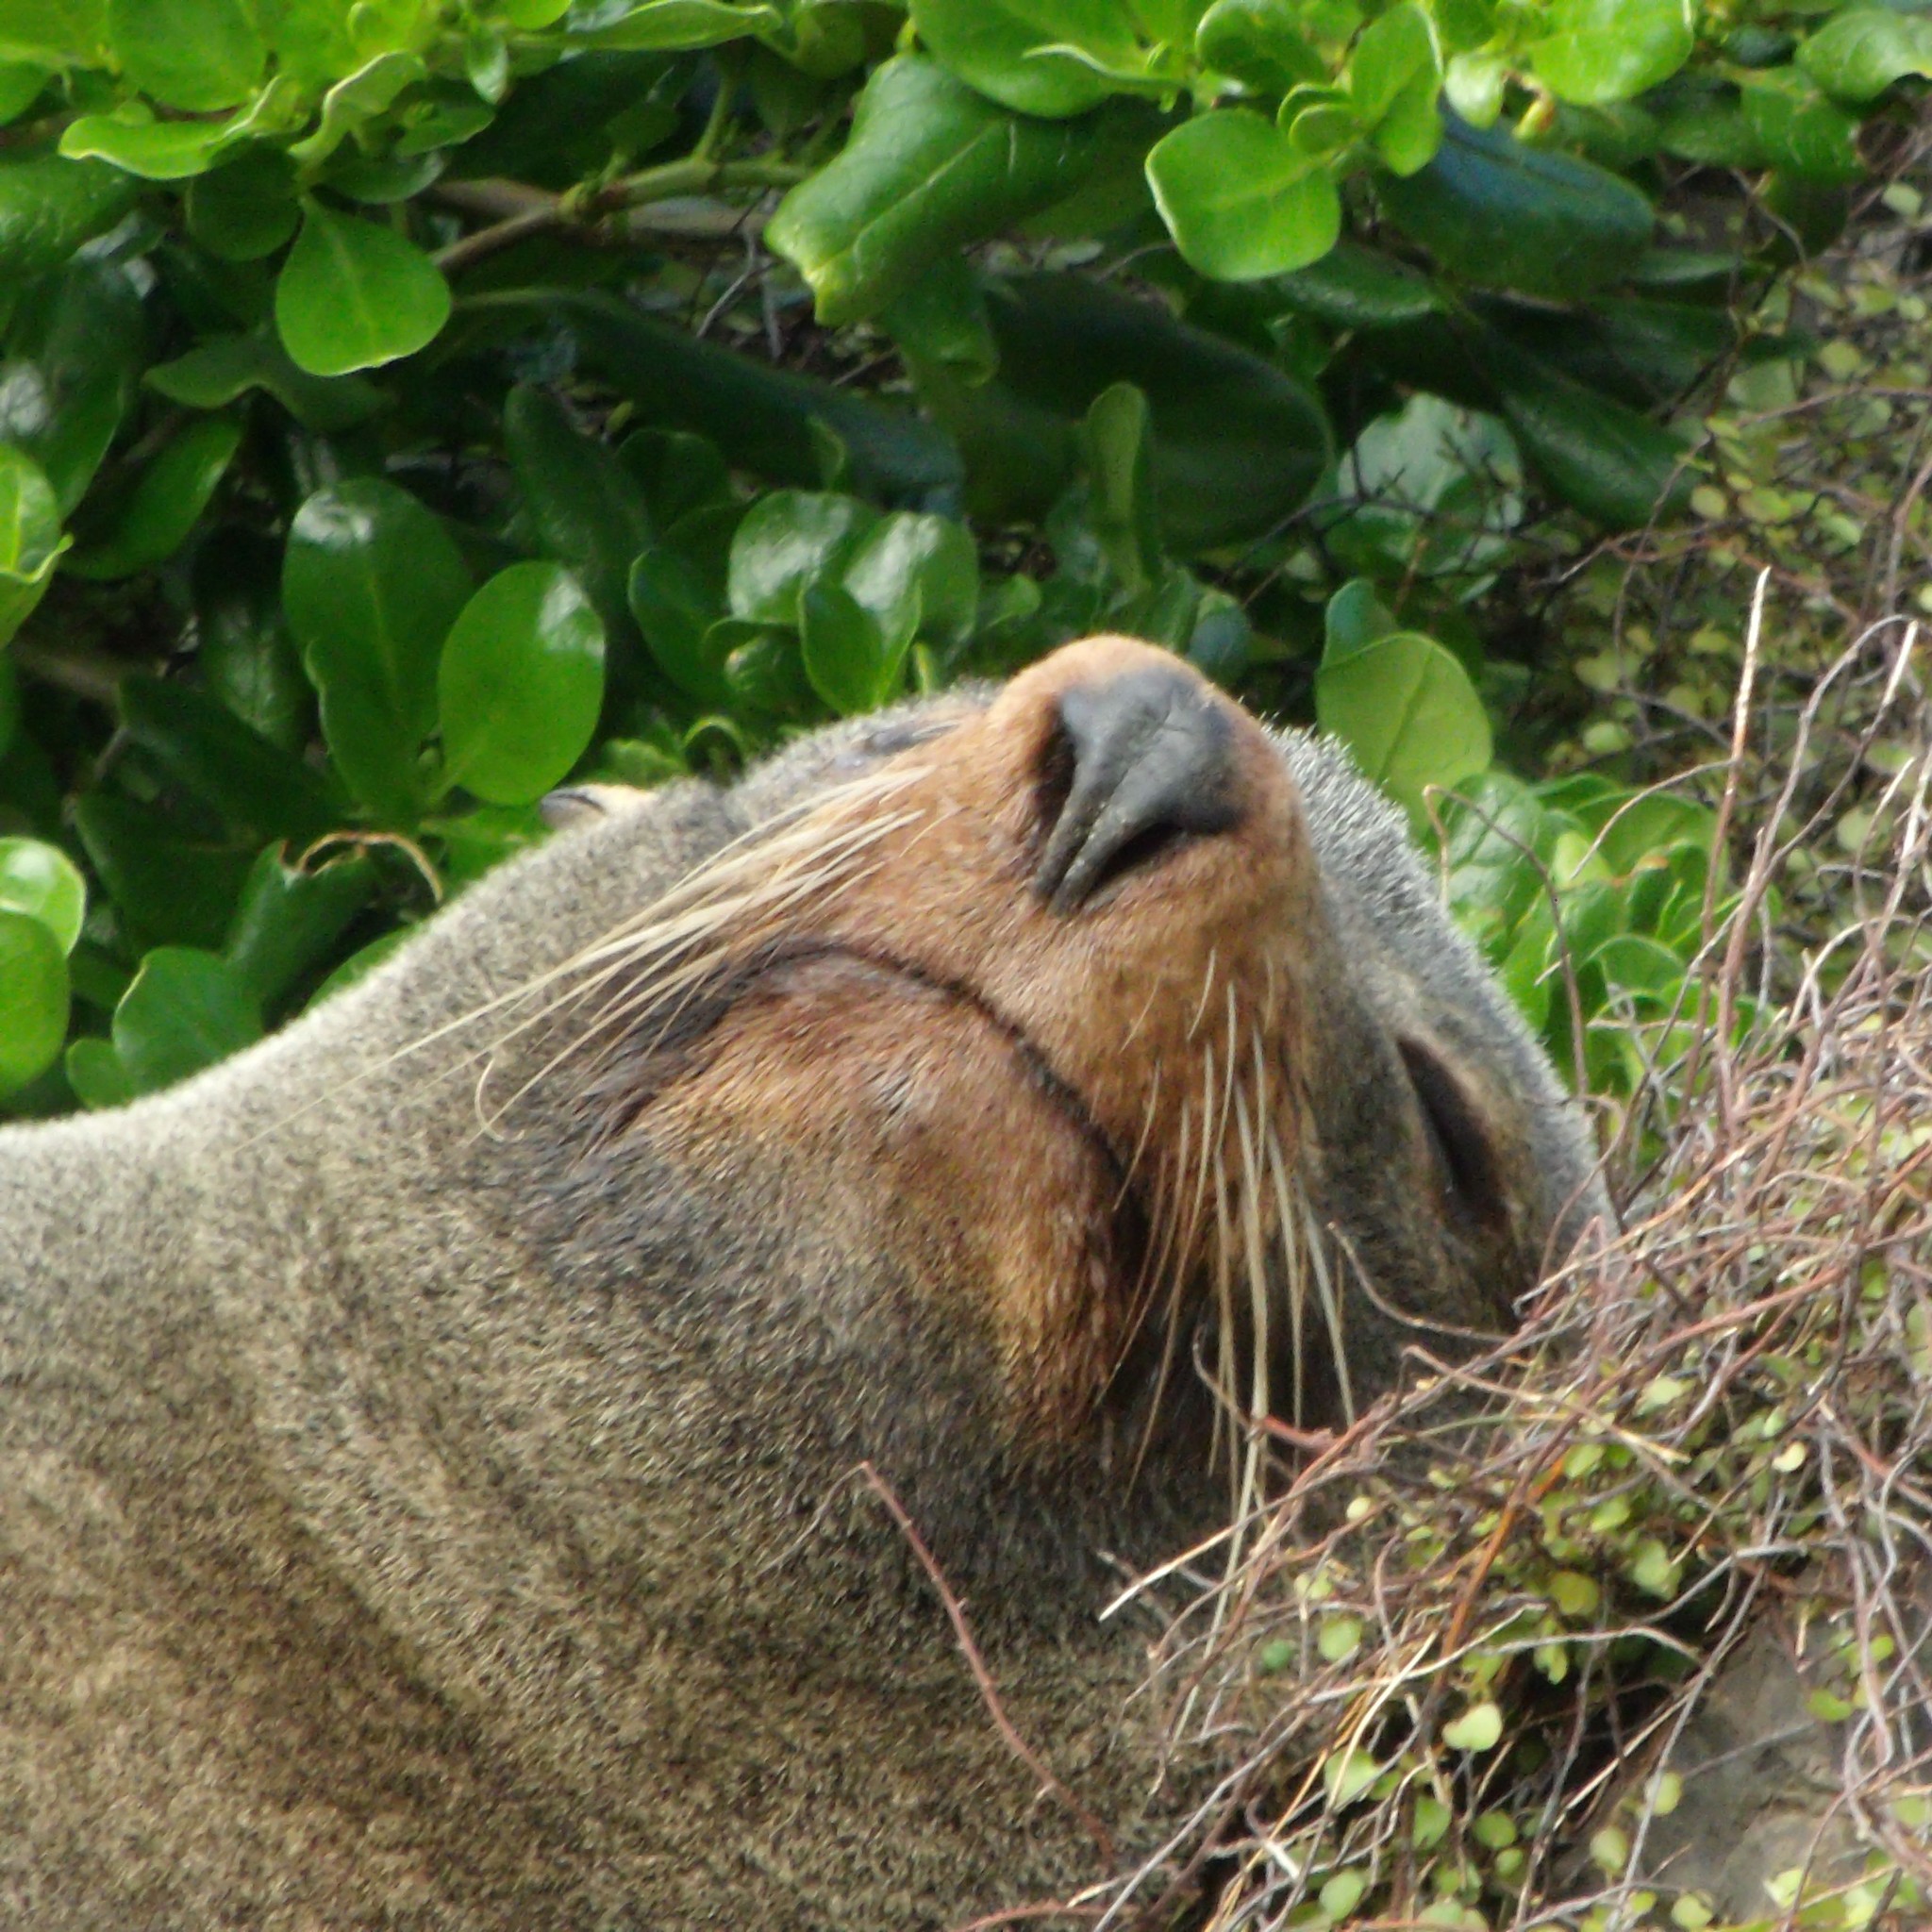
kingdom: Animalia
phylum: Chordata
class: Mammalia
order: Carnivora
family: Otariidae
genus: Arctocephalus
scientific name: Arctocephalus forsteri
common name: New zealand fur seal
